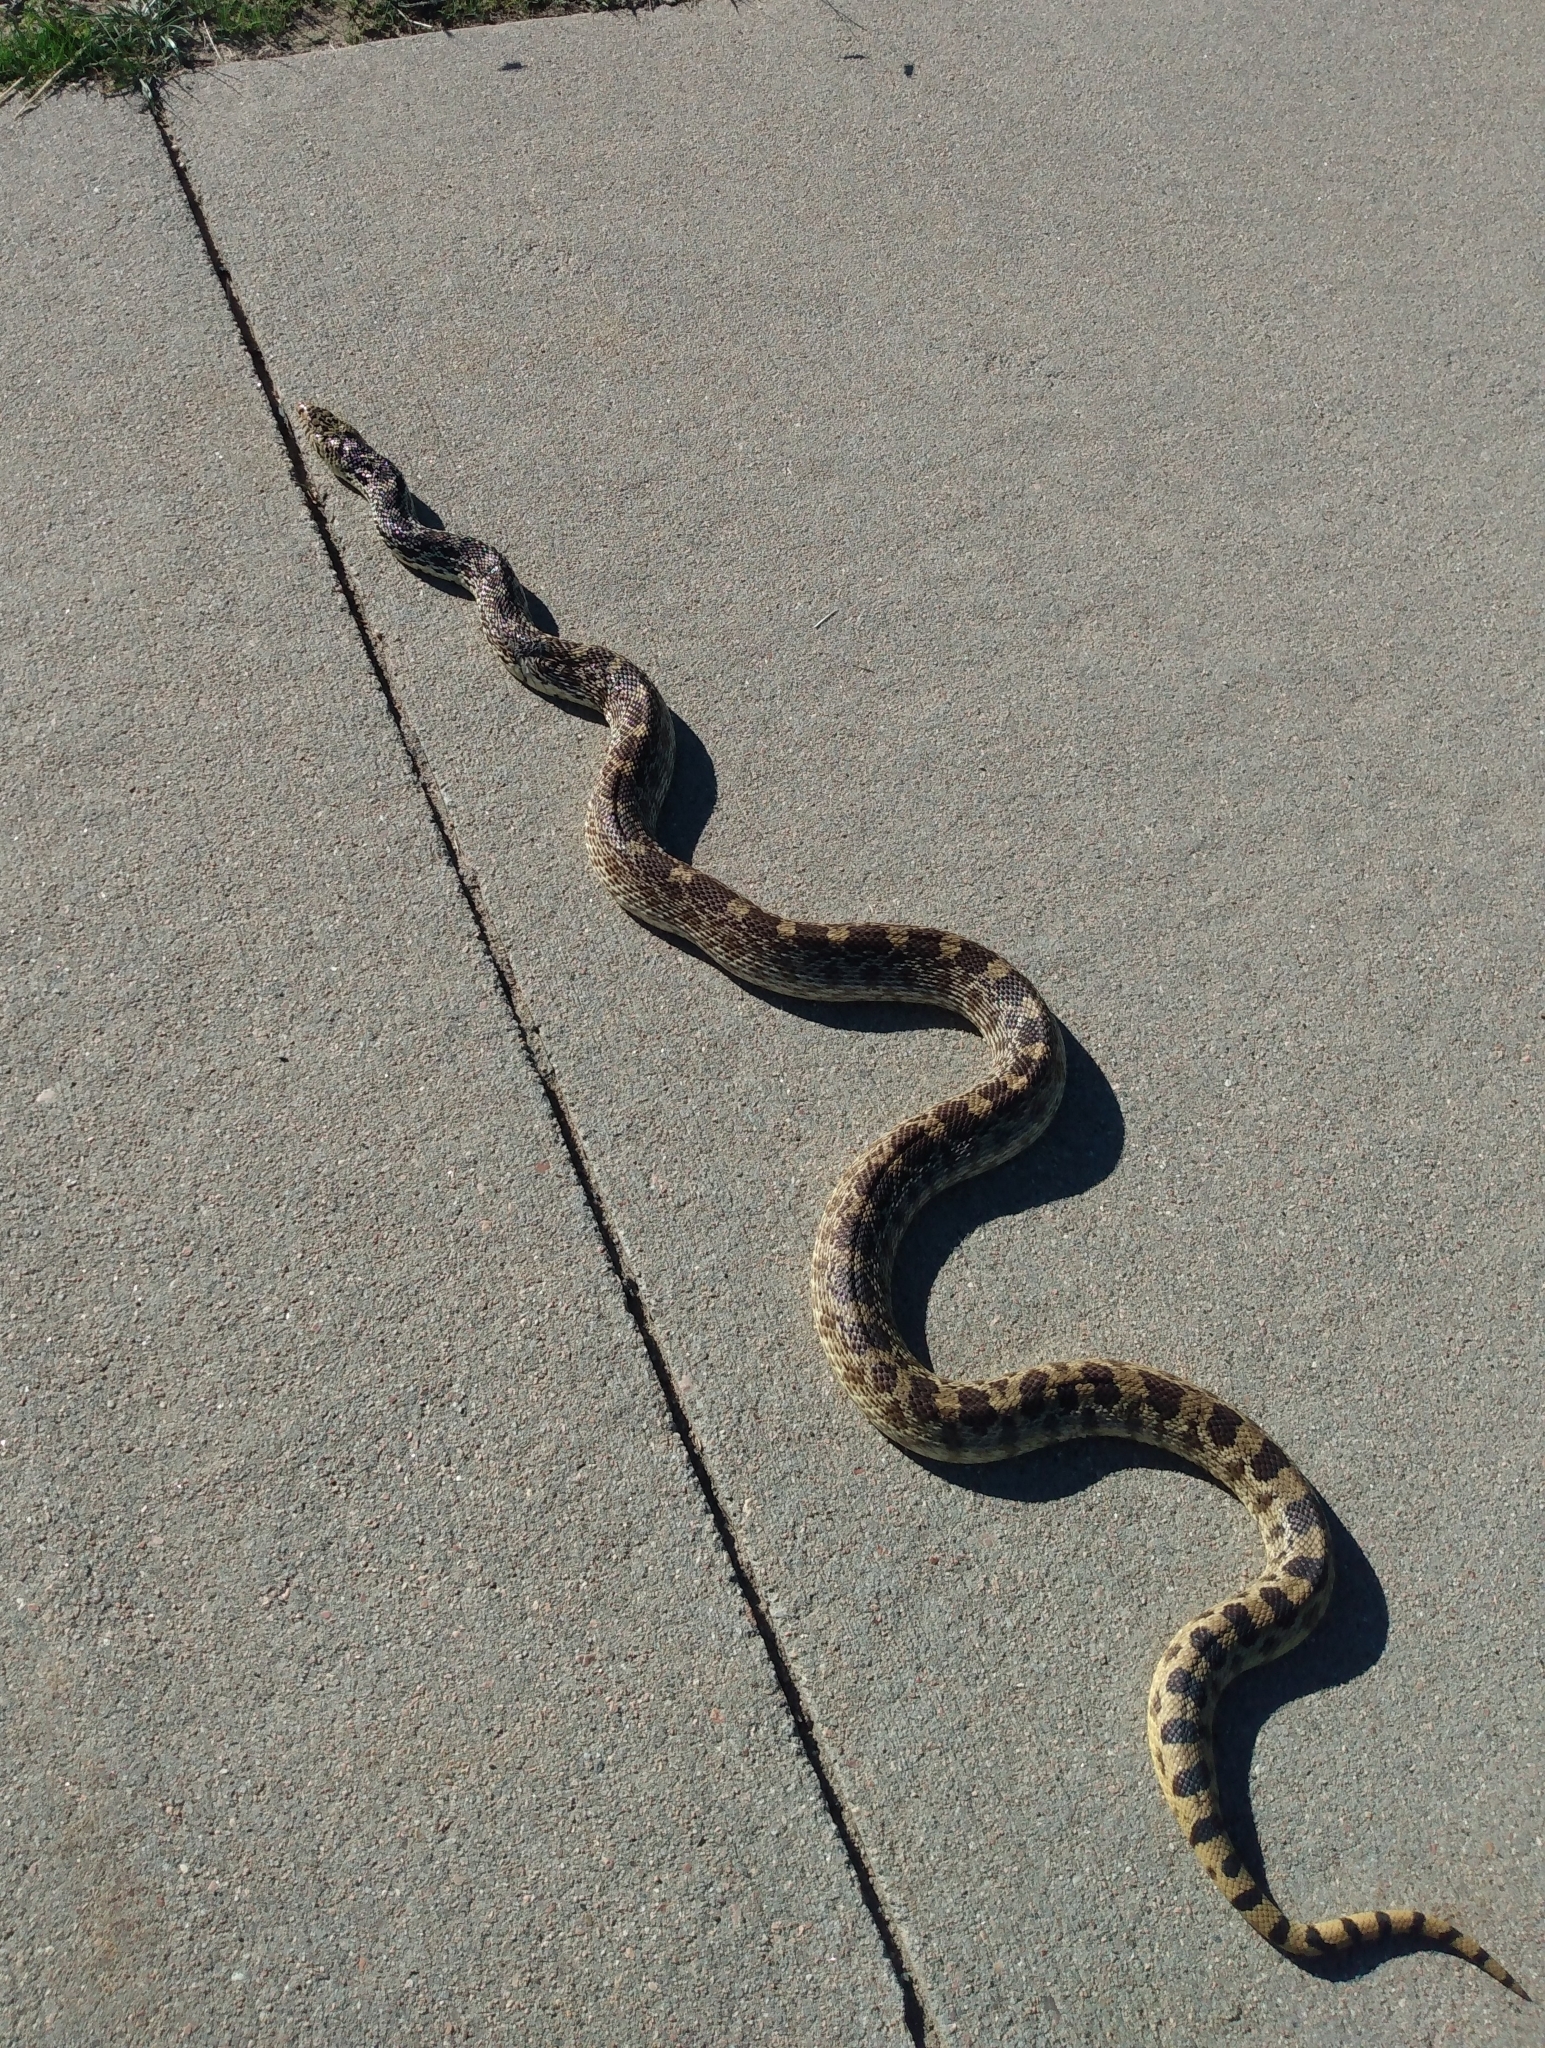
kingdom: Animalia
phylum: Chordata
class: Squamata
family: Colubridae
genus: Pituophis
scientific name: Pituophis catenifer
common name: Gopher snake
